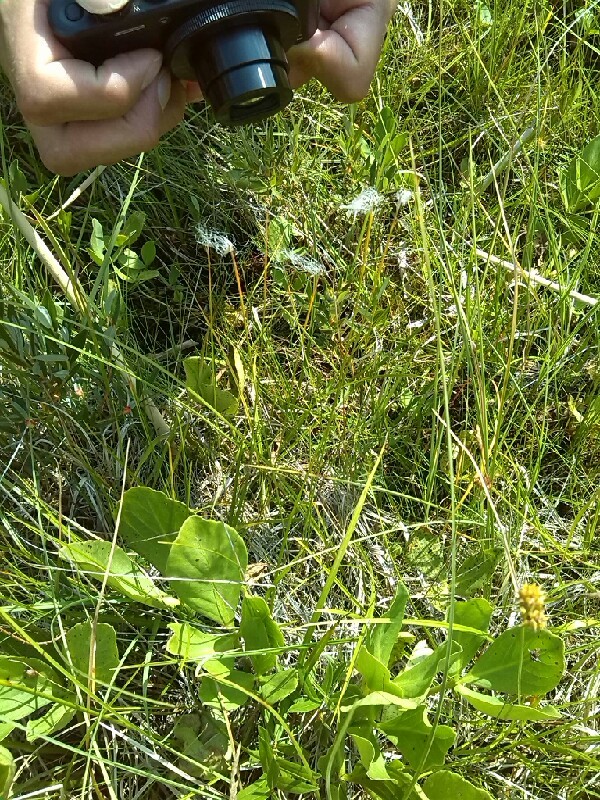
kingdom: Plantae
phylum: Tracheophyta
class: Liliopsida
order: Poales
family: Cyperaceae
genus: Trichophorum
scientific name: Trichophorum alpinum
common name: Alpine bulrush
